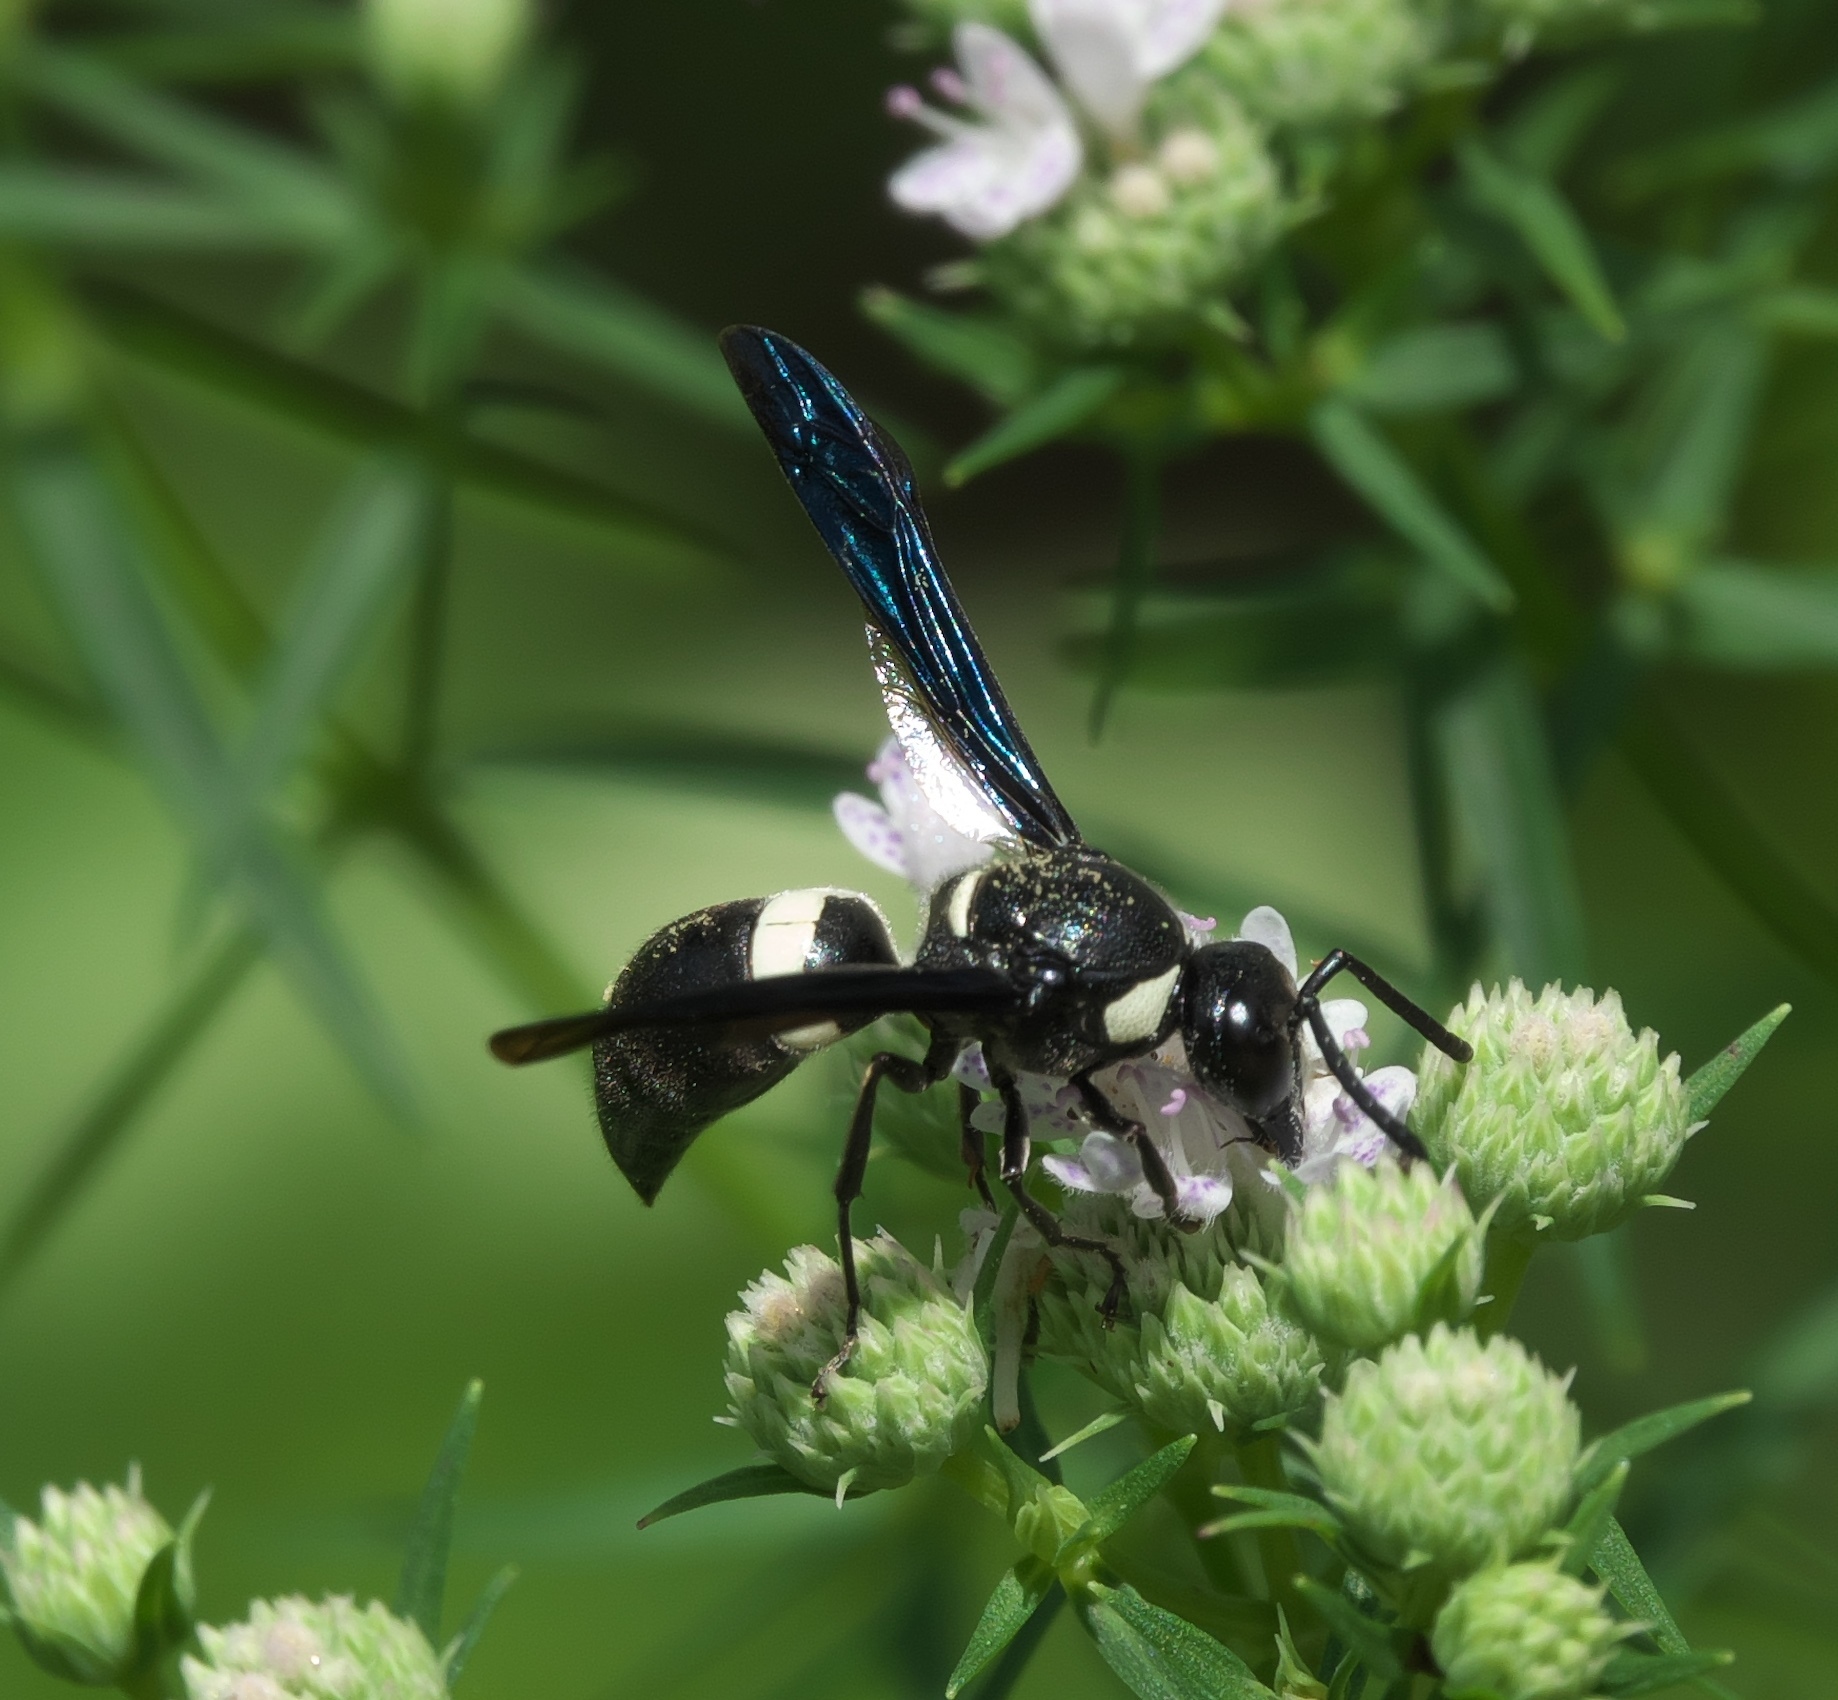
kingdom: Animalia
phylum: Arthropoda
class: Insecta
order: Hymenoptera
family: Eumenidae
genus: Monobia
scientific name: Monobia quadridens
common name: Four-toothed mason wasp
